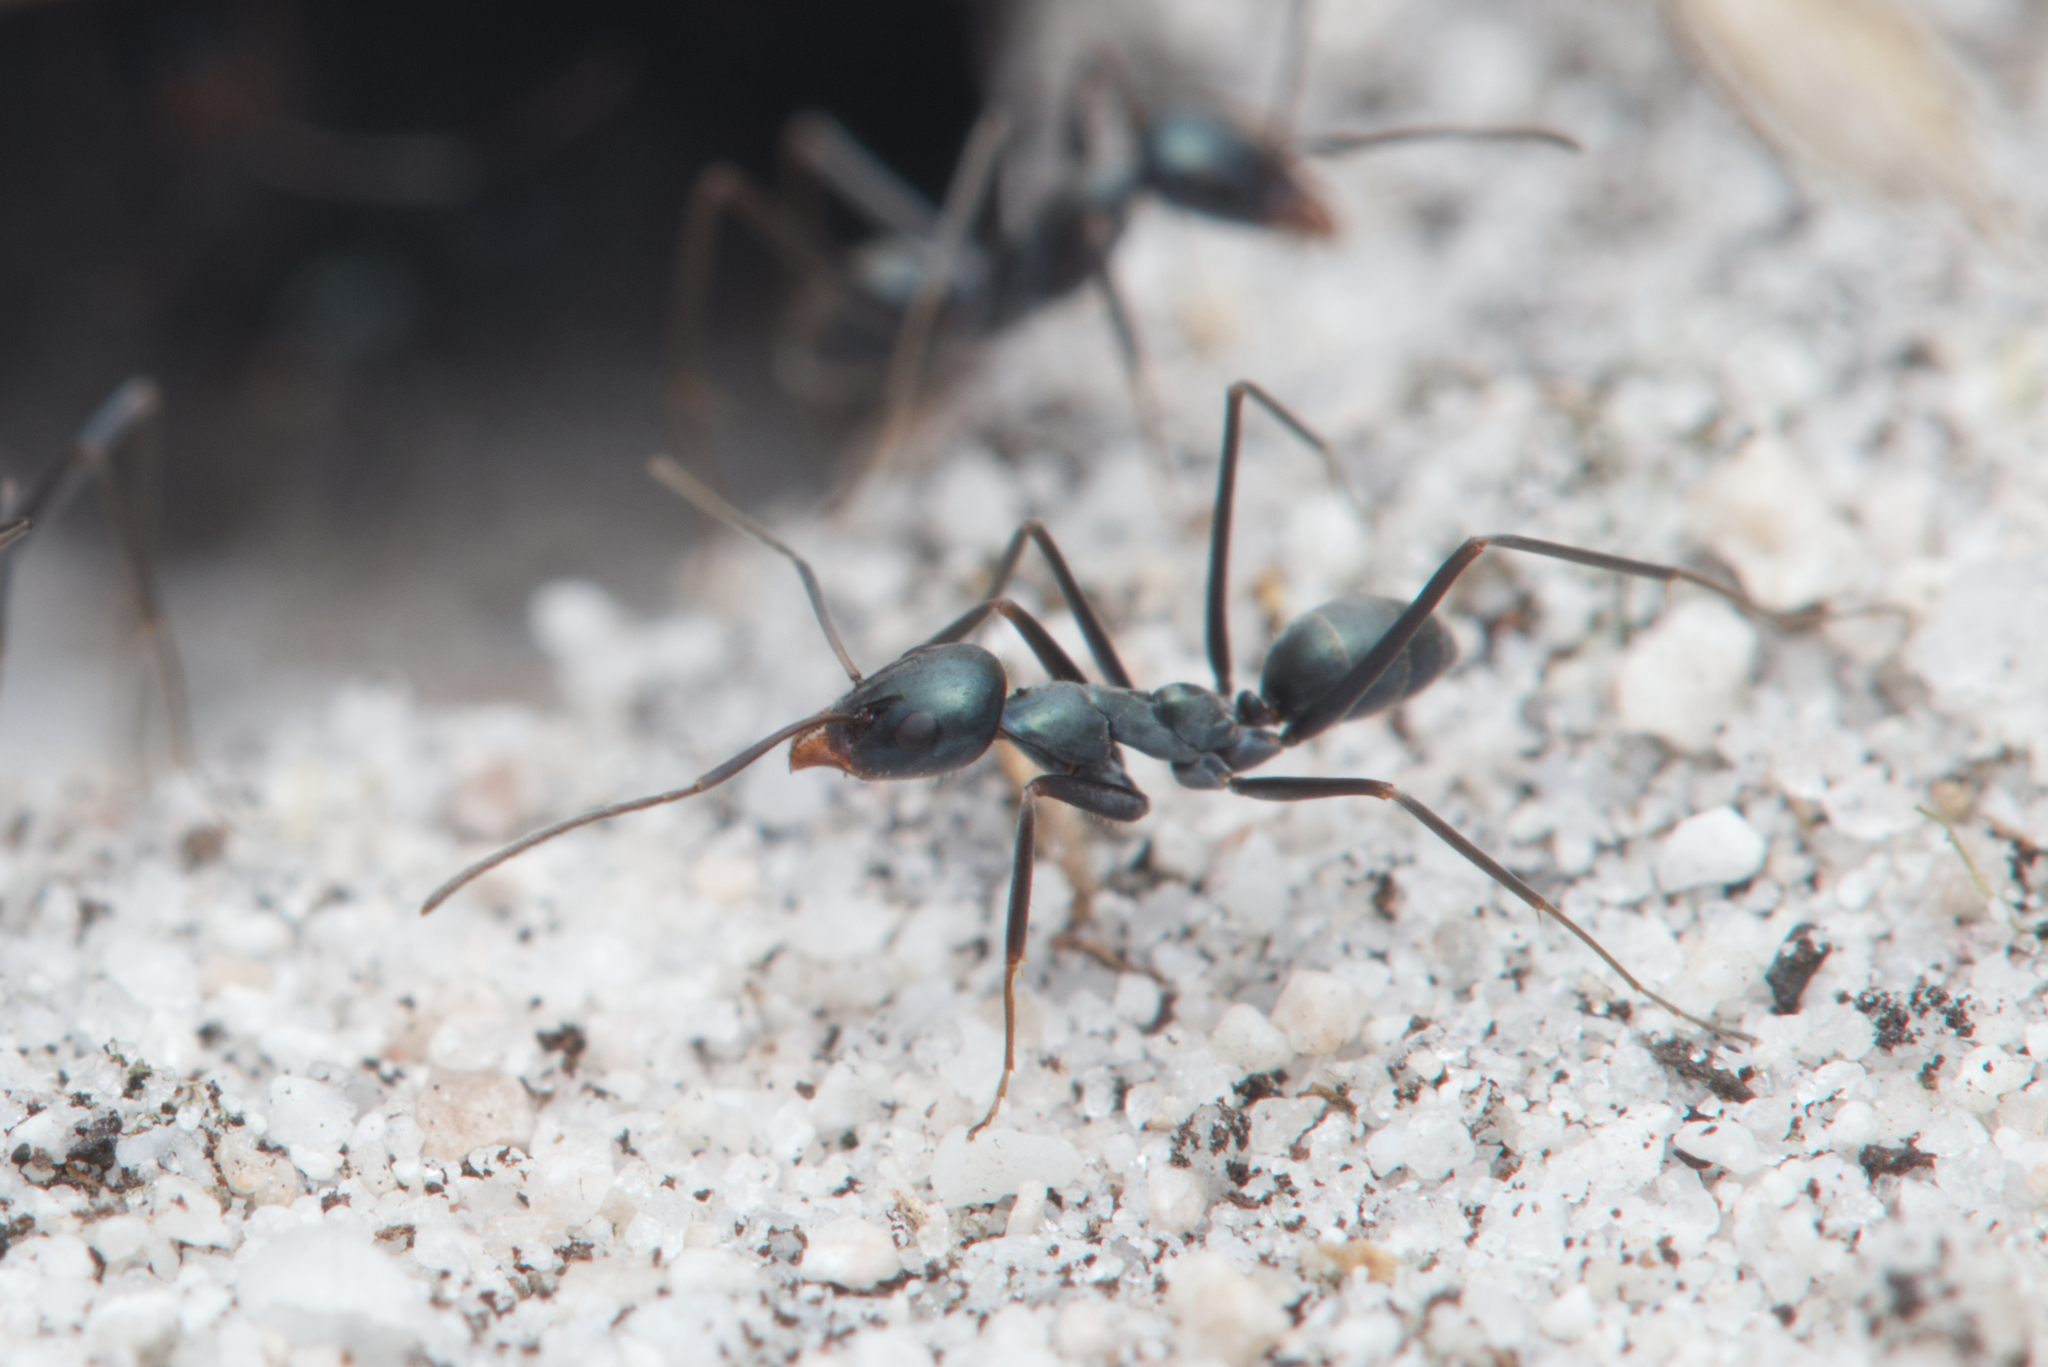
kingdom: Animalia
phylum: Arthropoda
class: Insecta
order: Hymenoptera
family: Formicidae
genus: Iridomyrmex
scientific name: Iridomyrmex bicknelli
